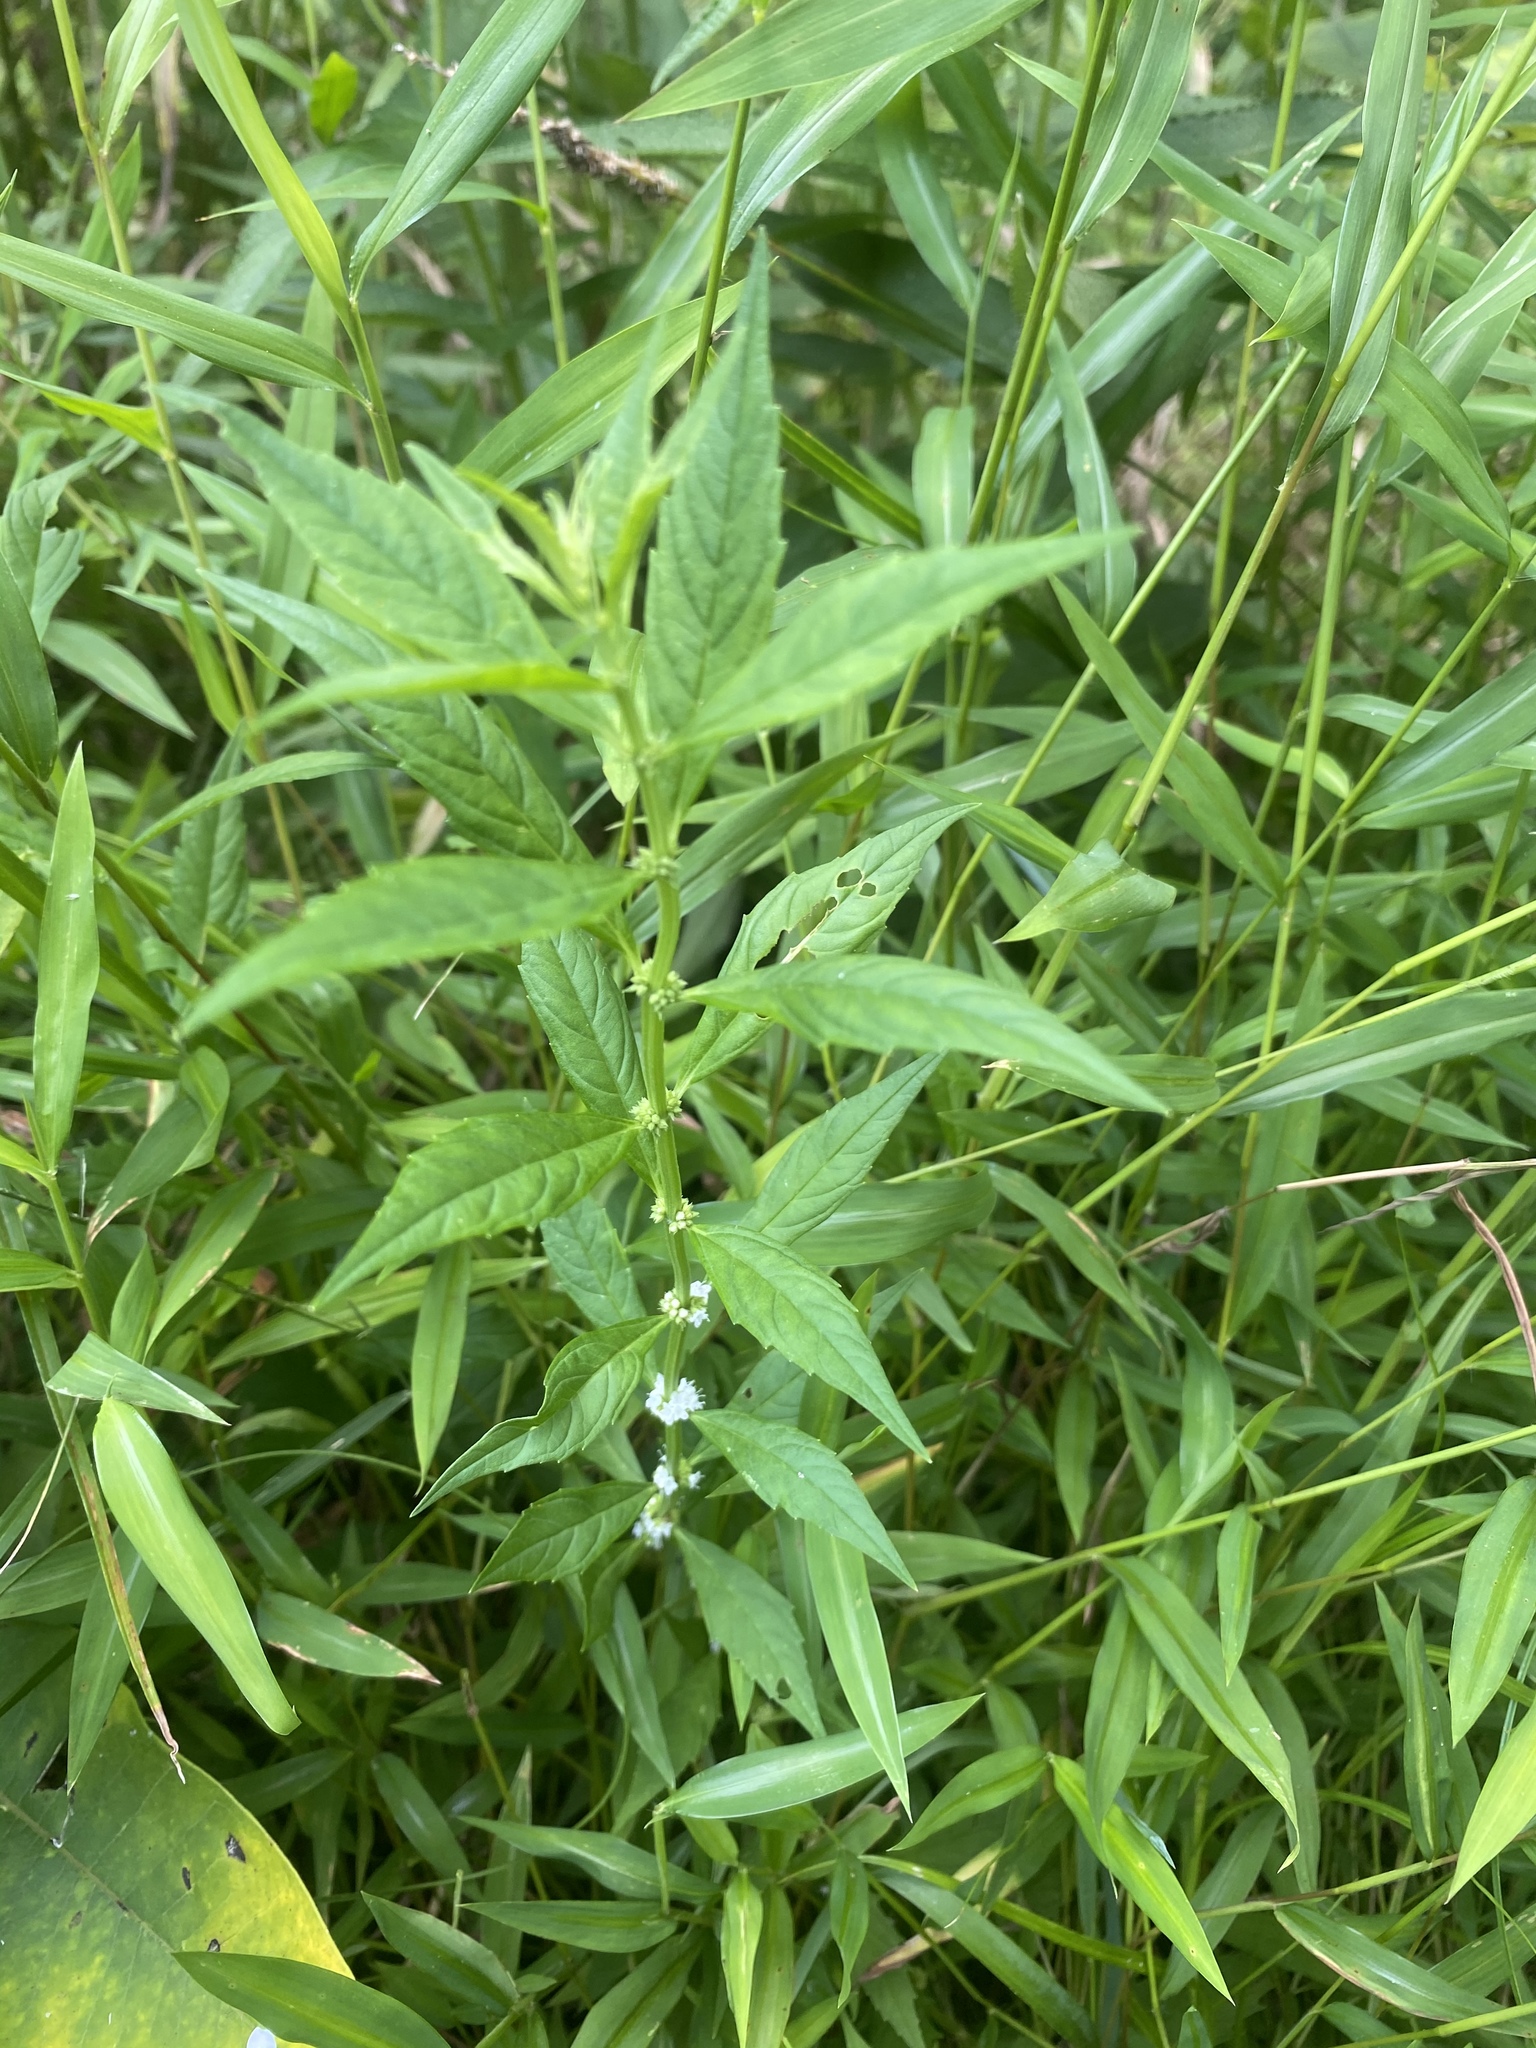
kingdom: Plantae
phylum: Tracheophyta
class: Magnoliopsida
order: Lamiales
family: Lamiaceae
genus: Lycopus
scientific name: Lycopus uniflorus
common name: Northern bugleweed
